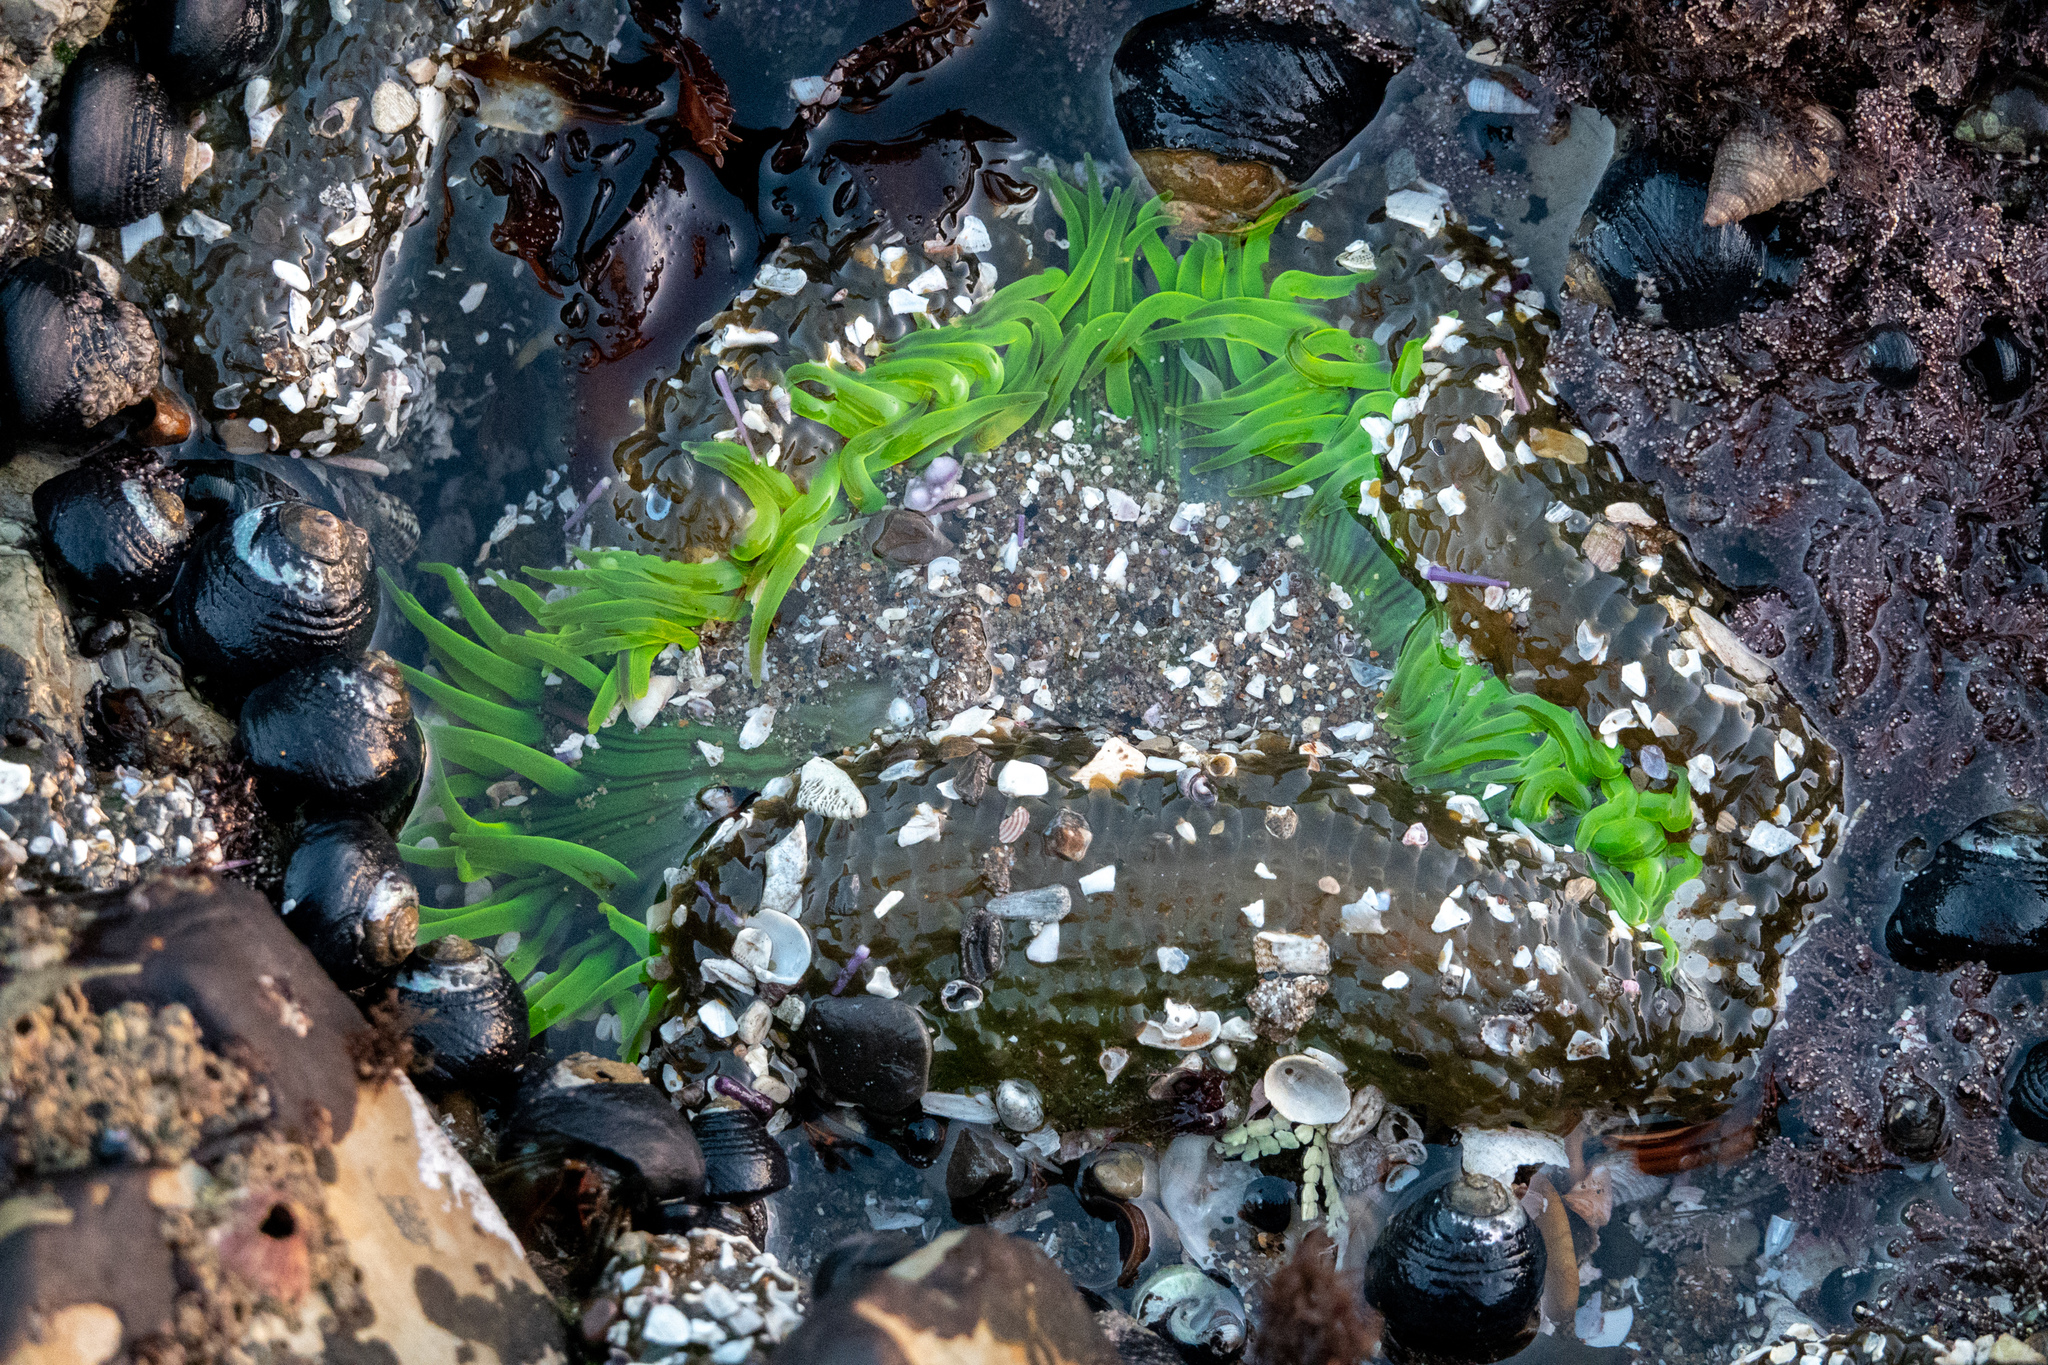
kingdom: Animalia
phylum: Cnidaria
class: Anthozoa
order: Actiniaria
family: Actiniidae
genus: Anthopleura
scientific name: Anthopleura sola
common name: Sun anemone
